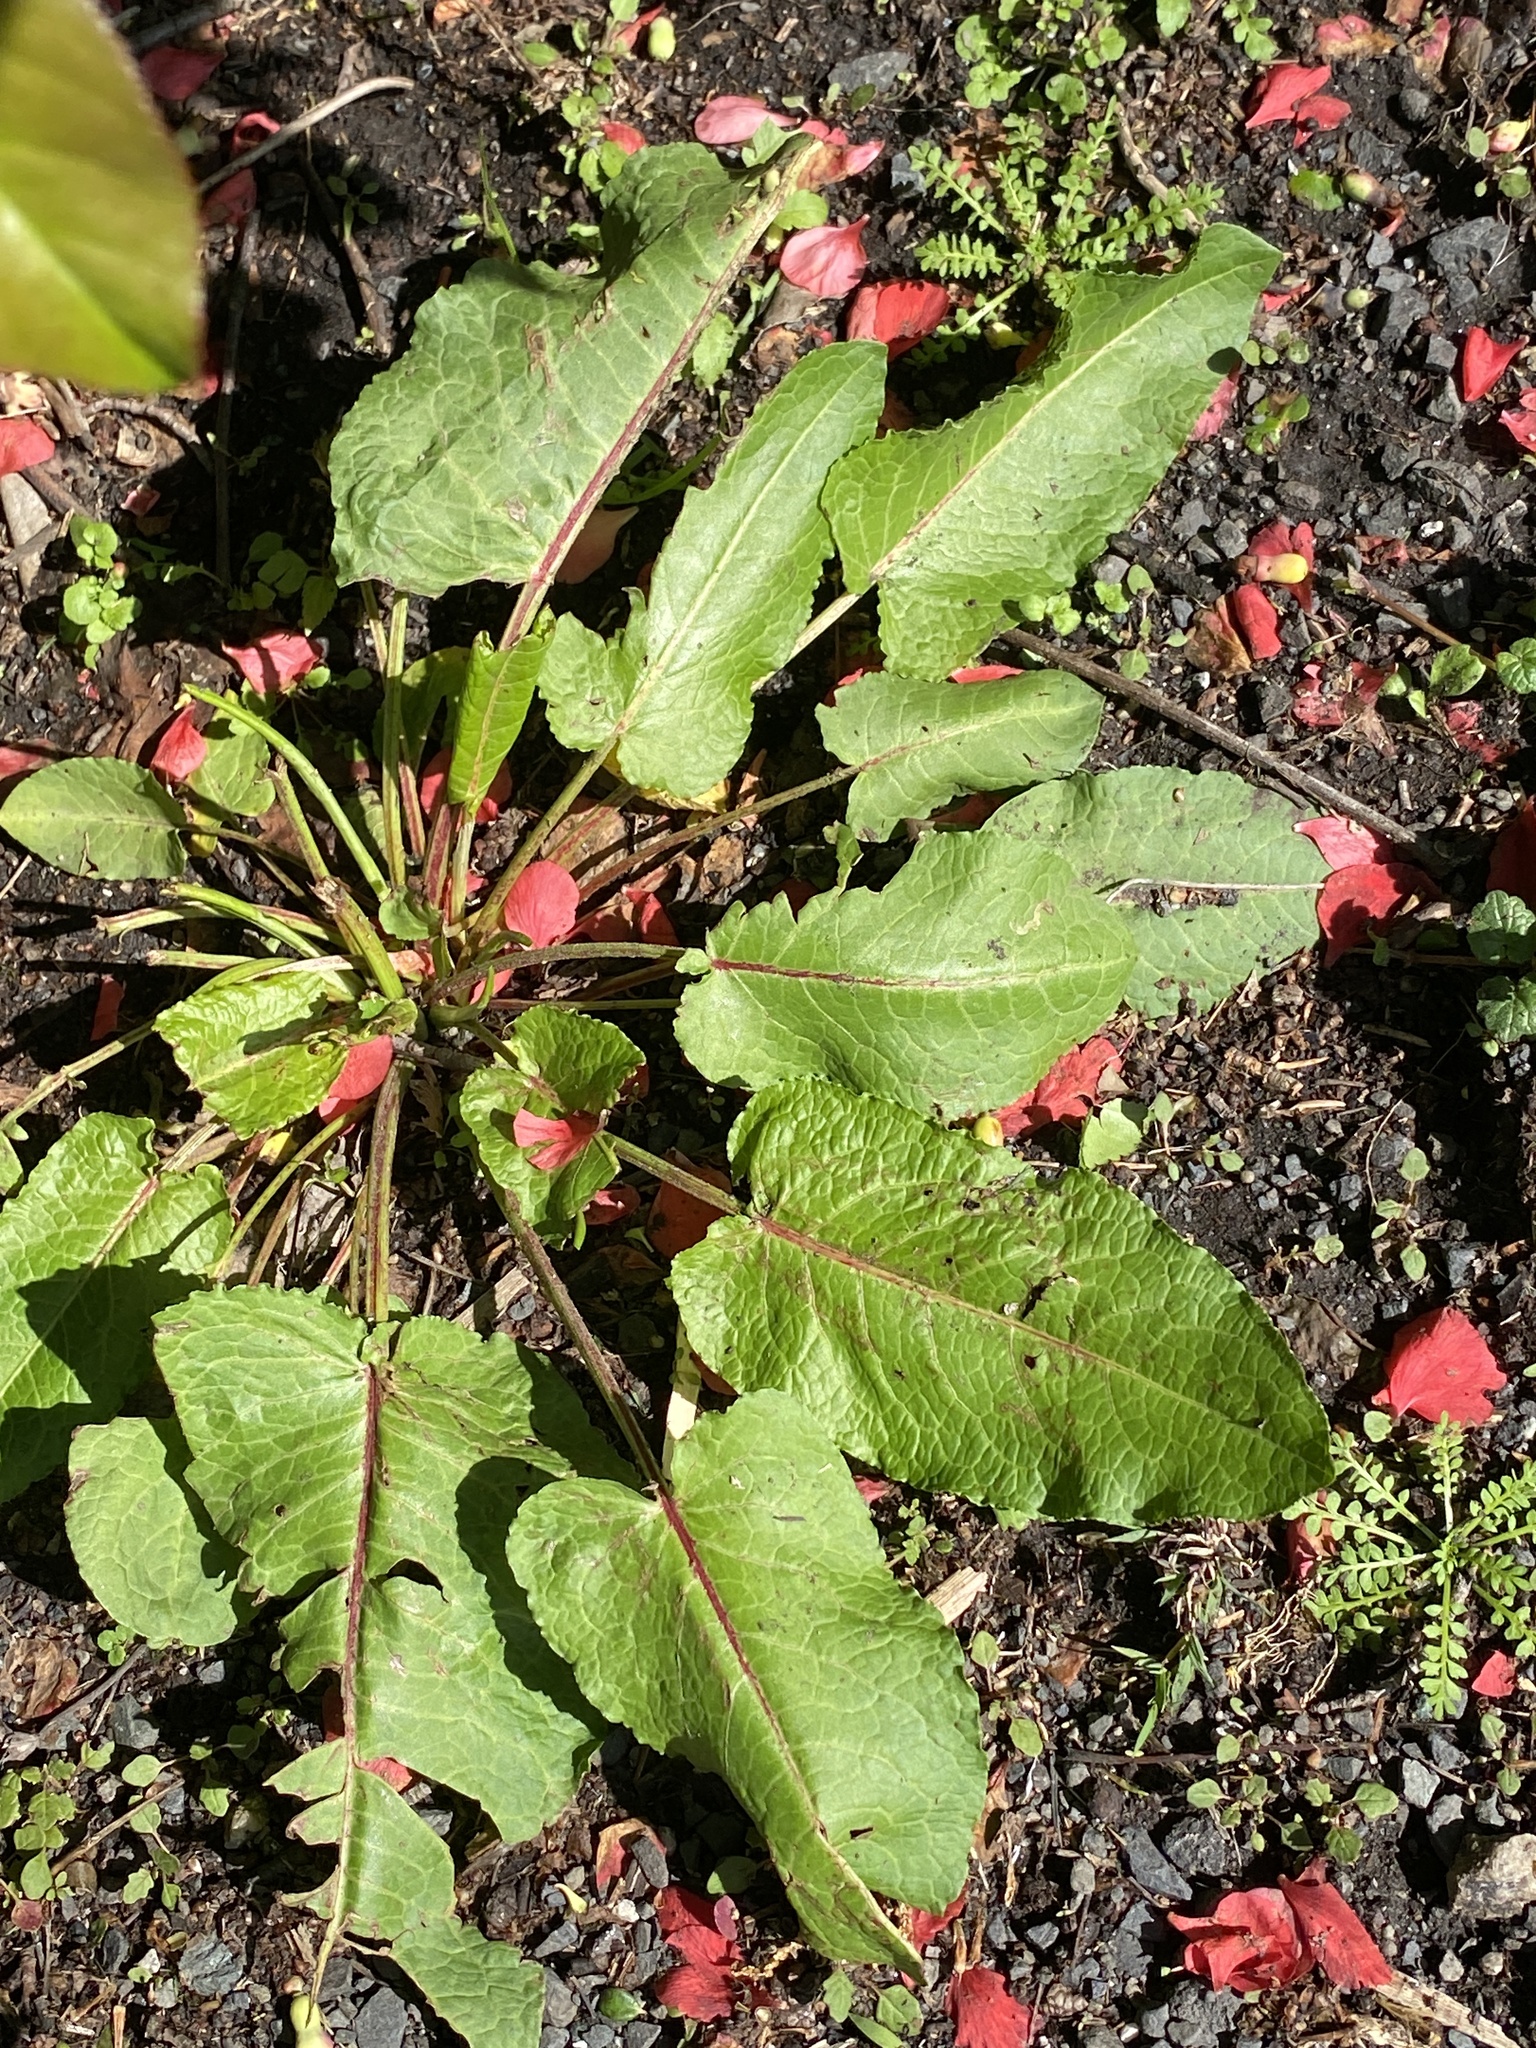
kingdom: Plantae
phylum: Tracheophyta
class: Magnoliopsida
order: Caryophyllales
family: Polygonaceae
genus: Rumex
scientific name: Rumex obtusifolius
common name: Bitter dock
